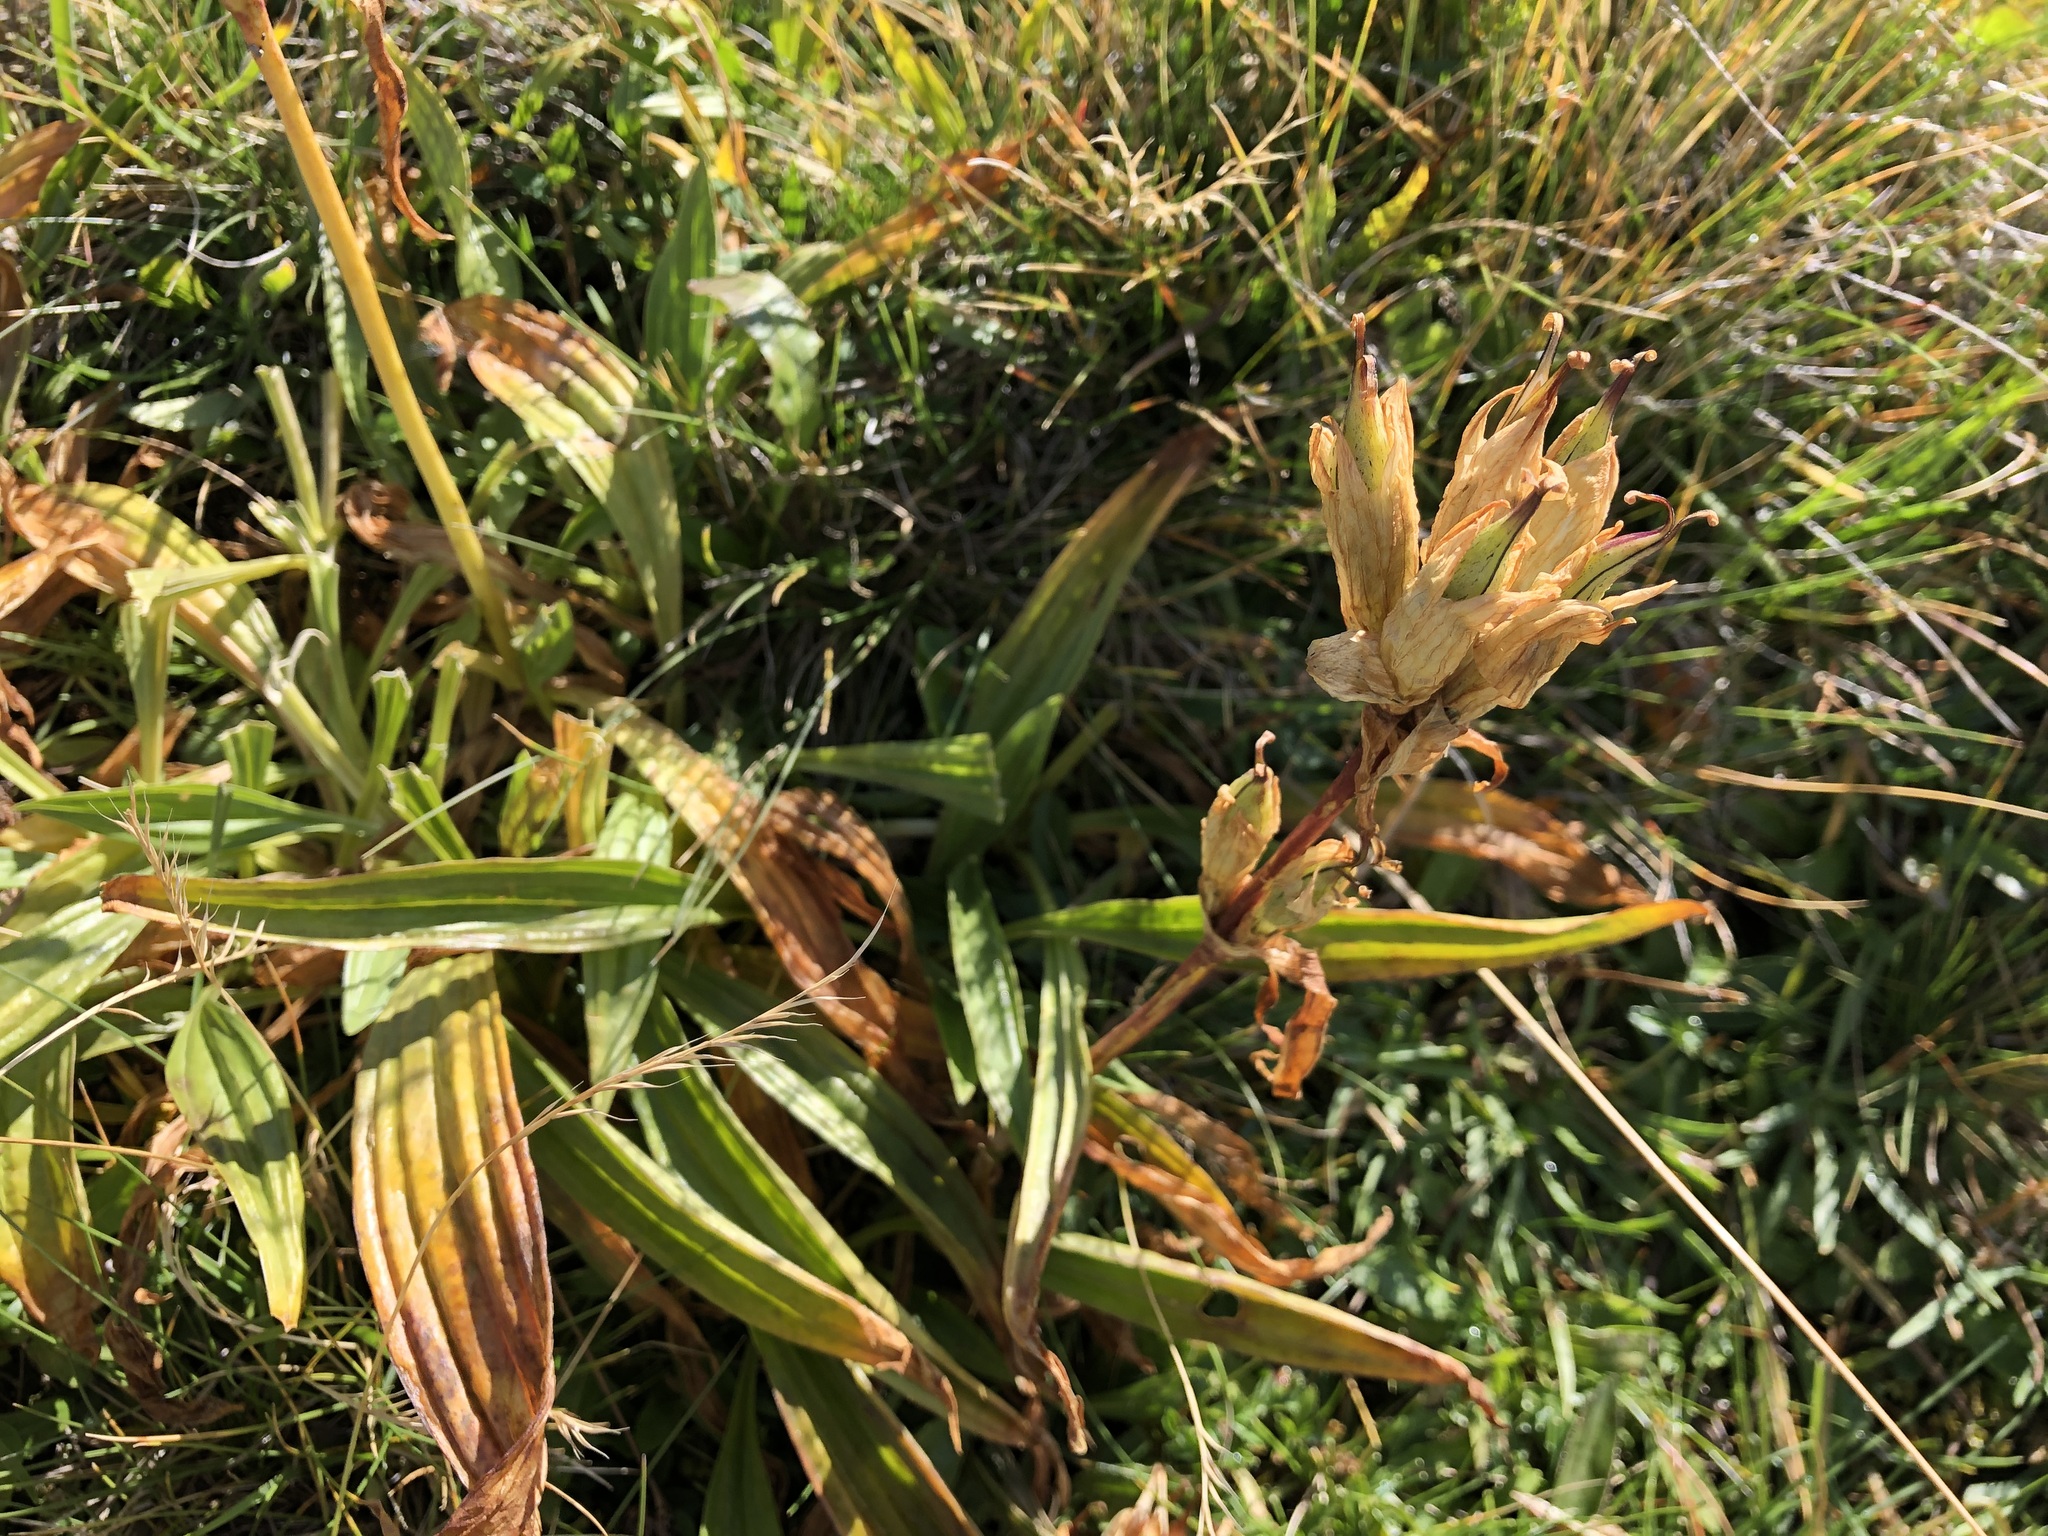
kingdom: Plantae
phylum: Tracheophyta
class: Magnoliopsida
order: Gentianales
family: Gentianaceae
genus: Gentiana
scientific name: Gentiana purpurea
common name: Purple gentian
